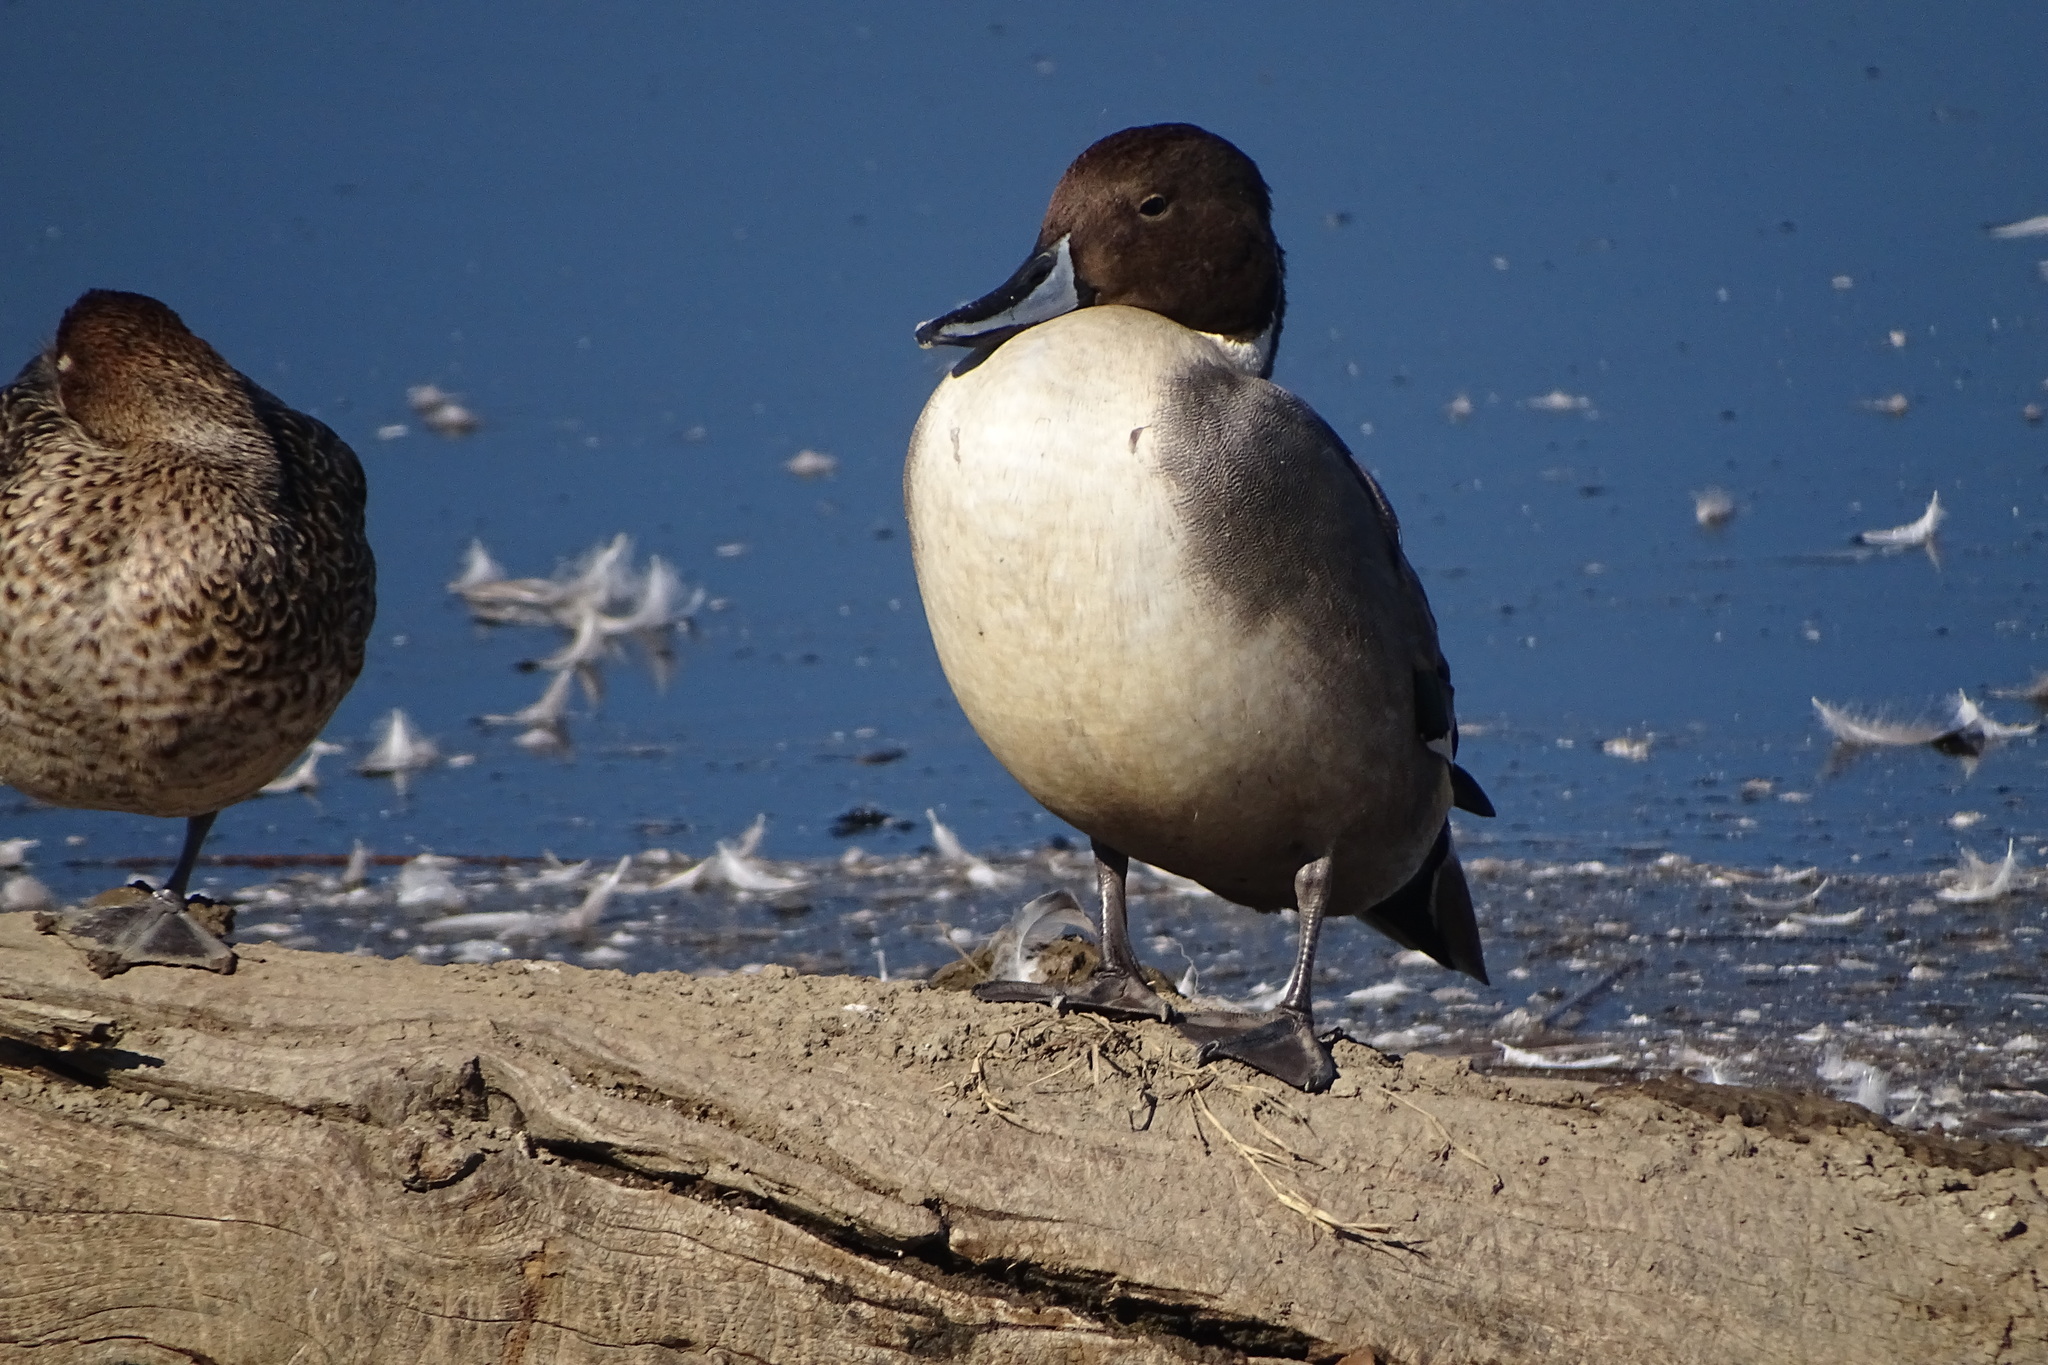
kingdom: Animalia
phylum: Chordata
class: Aves
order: Anseriformes
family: Anatidae
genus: Anas
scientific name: Anas acuta
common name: Northern pintail
